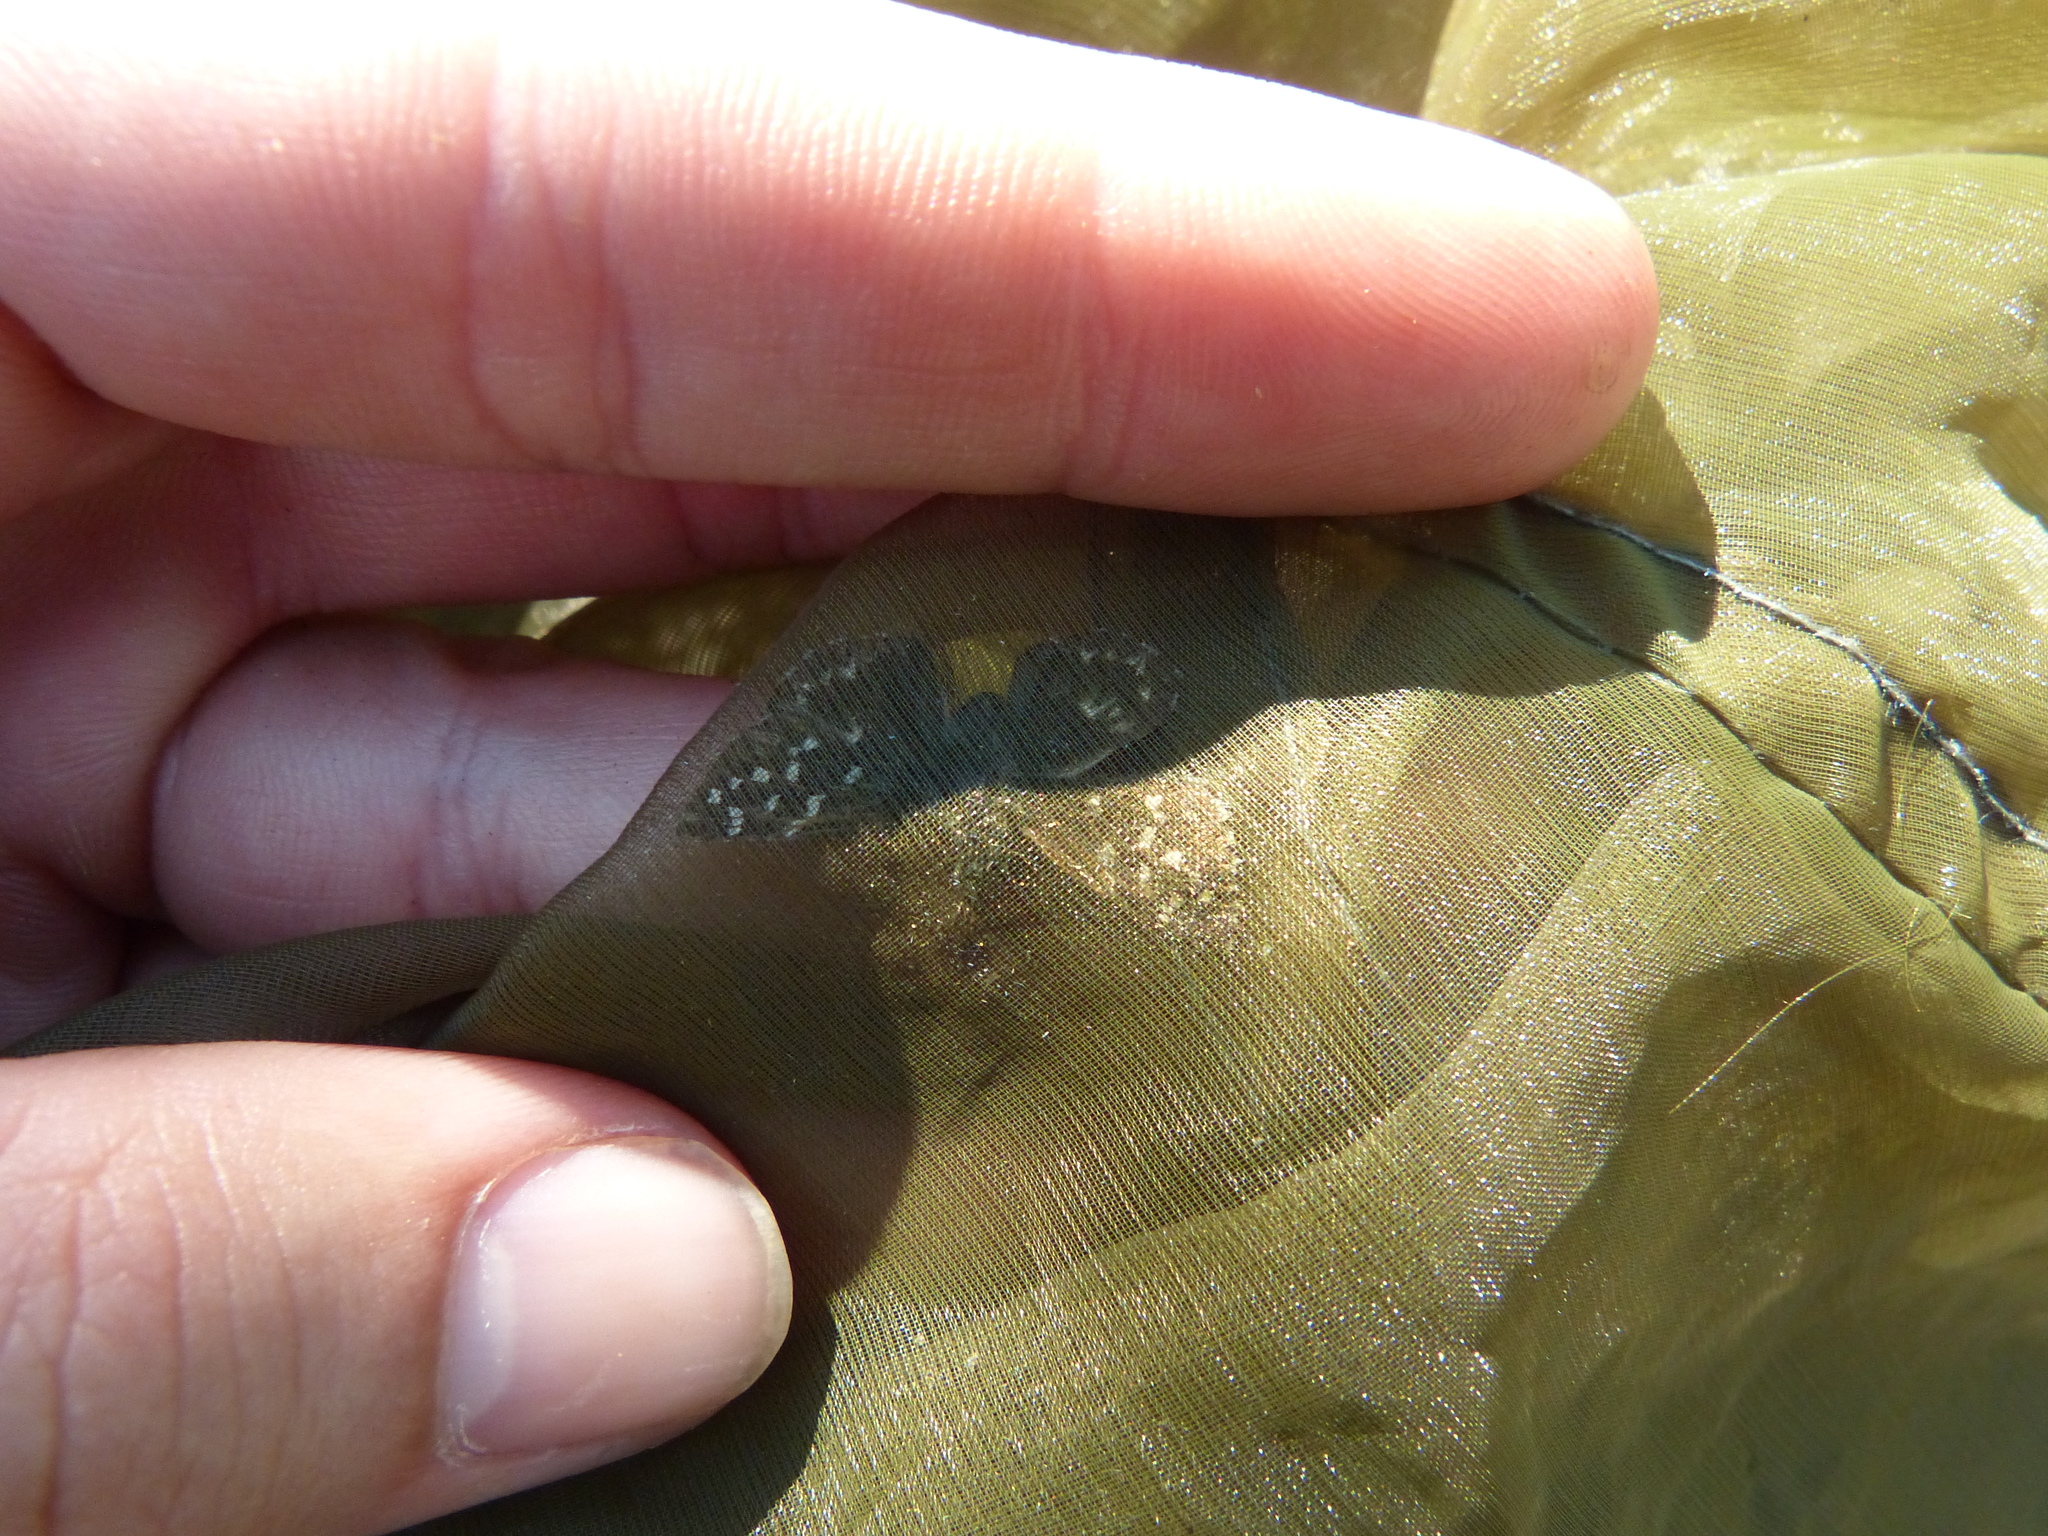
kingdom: Animalia
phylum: Arthropoda
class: Insecta
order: Lepidoptera
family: Hesperiidae
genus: Pyrgus
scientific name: Pyrgus malvoides
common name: Southern grizzled skipper
